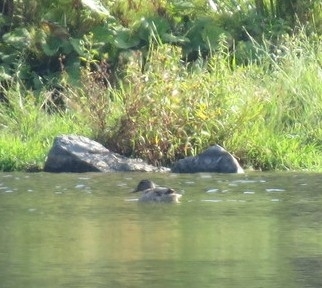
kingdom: Animalia
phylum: Chordata
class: Aves
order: Anseriformes
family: Anatidae
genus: Anas
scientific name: Anas platyrhynchos
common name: Mallard
